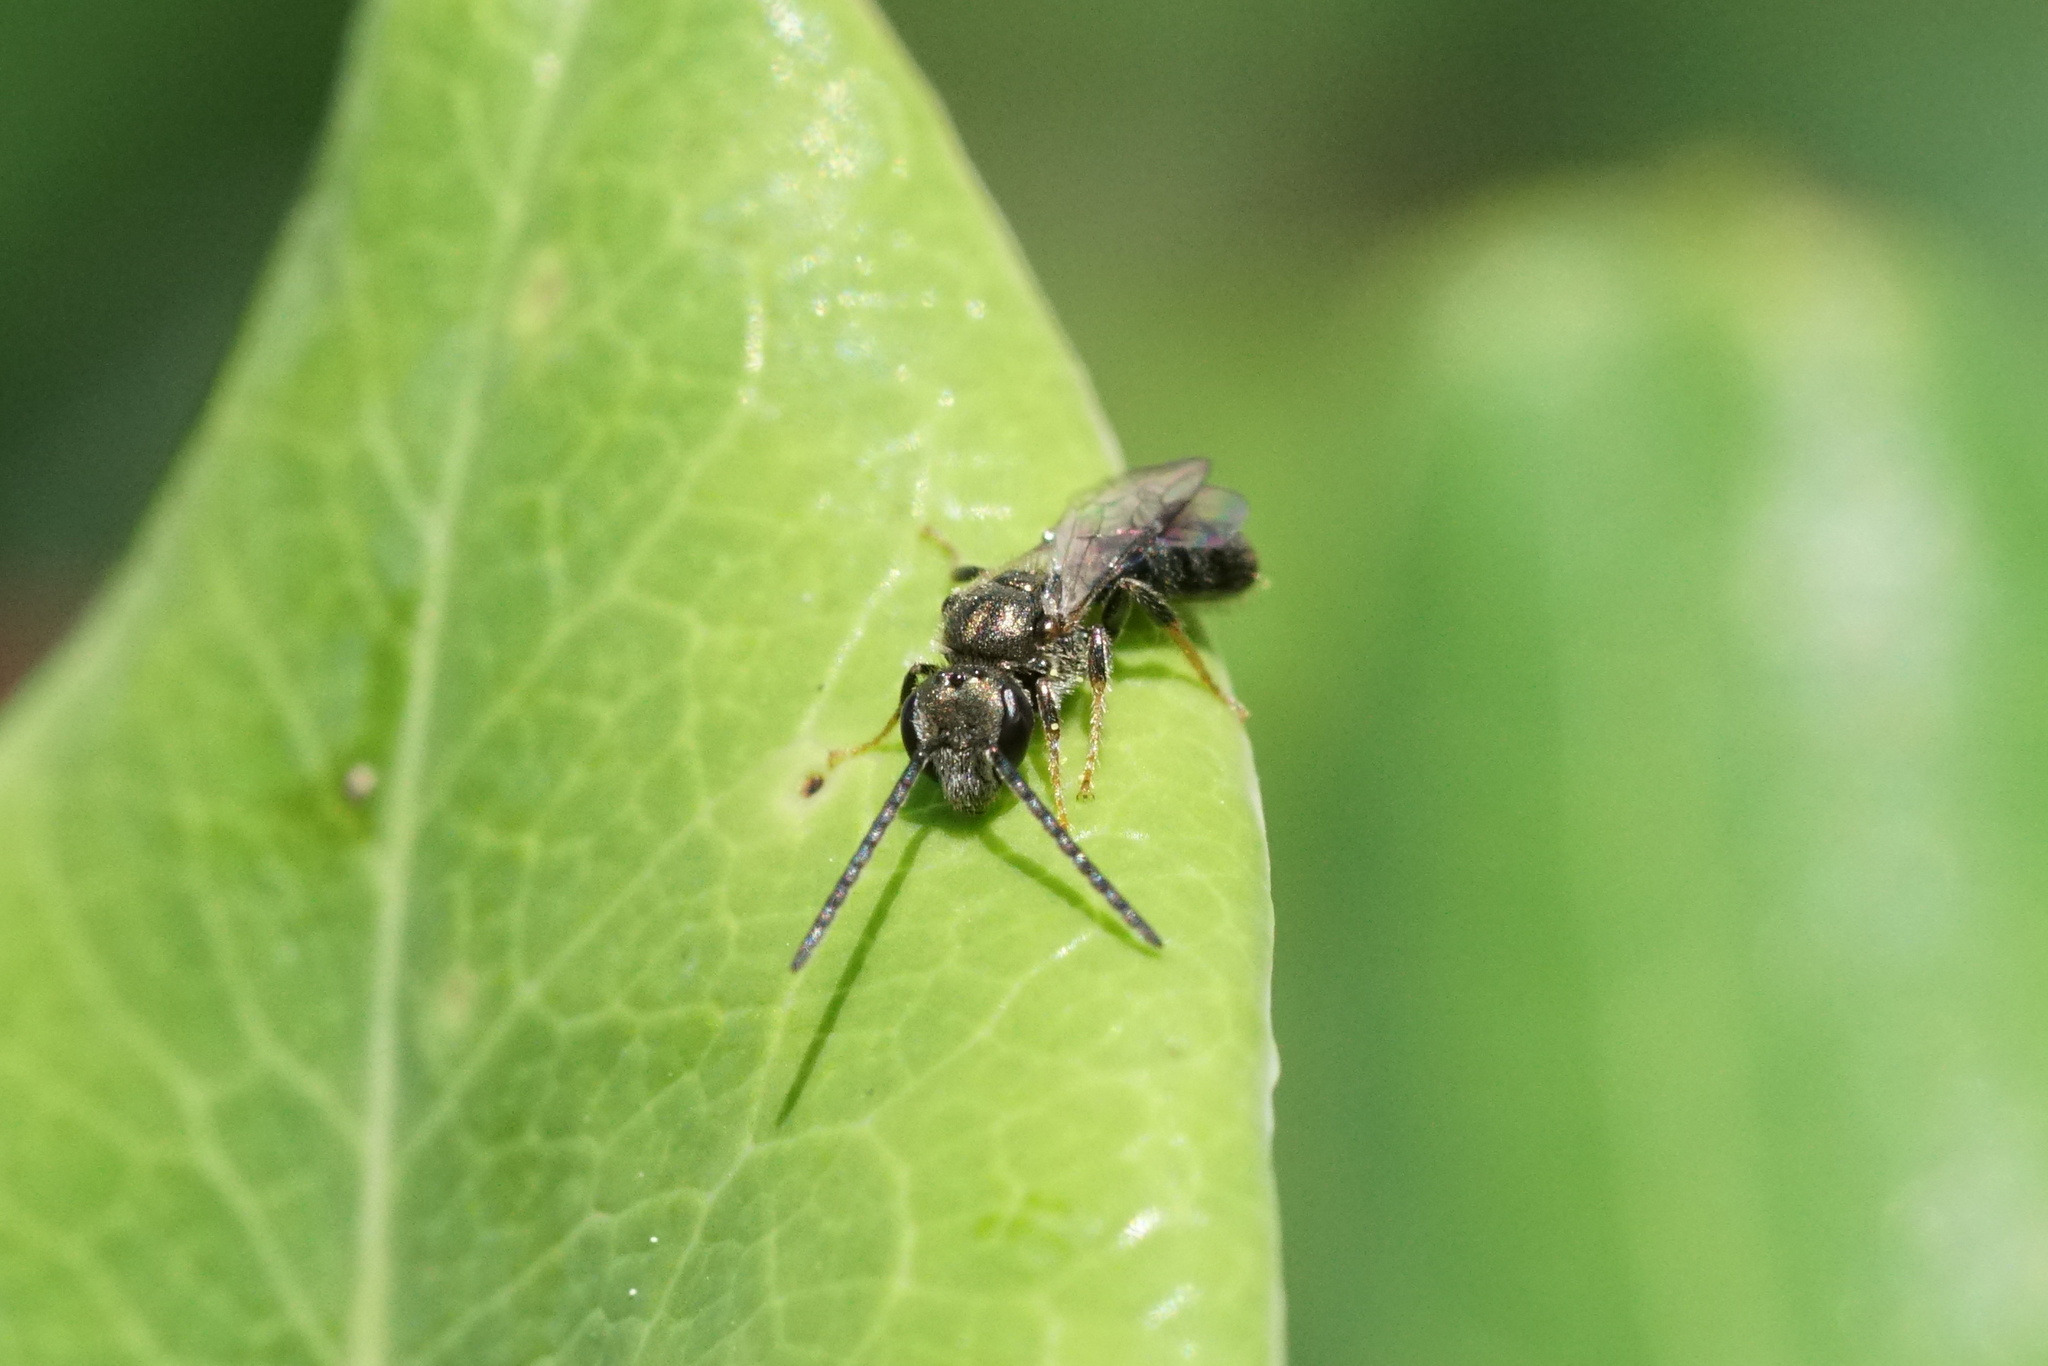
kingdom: Animalia
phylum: Arthropoda
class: Insecta
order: Hymenoptera
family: Halictidae
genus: Dialictus
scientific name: Dialictus
